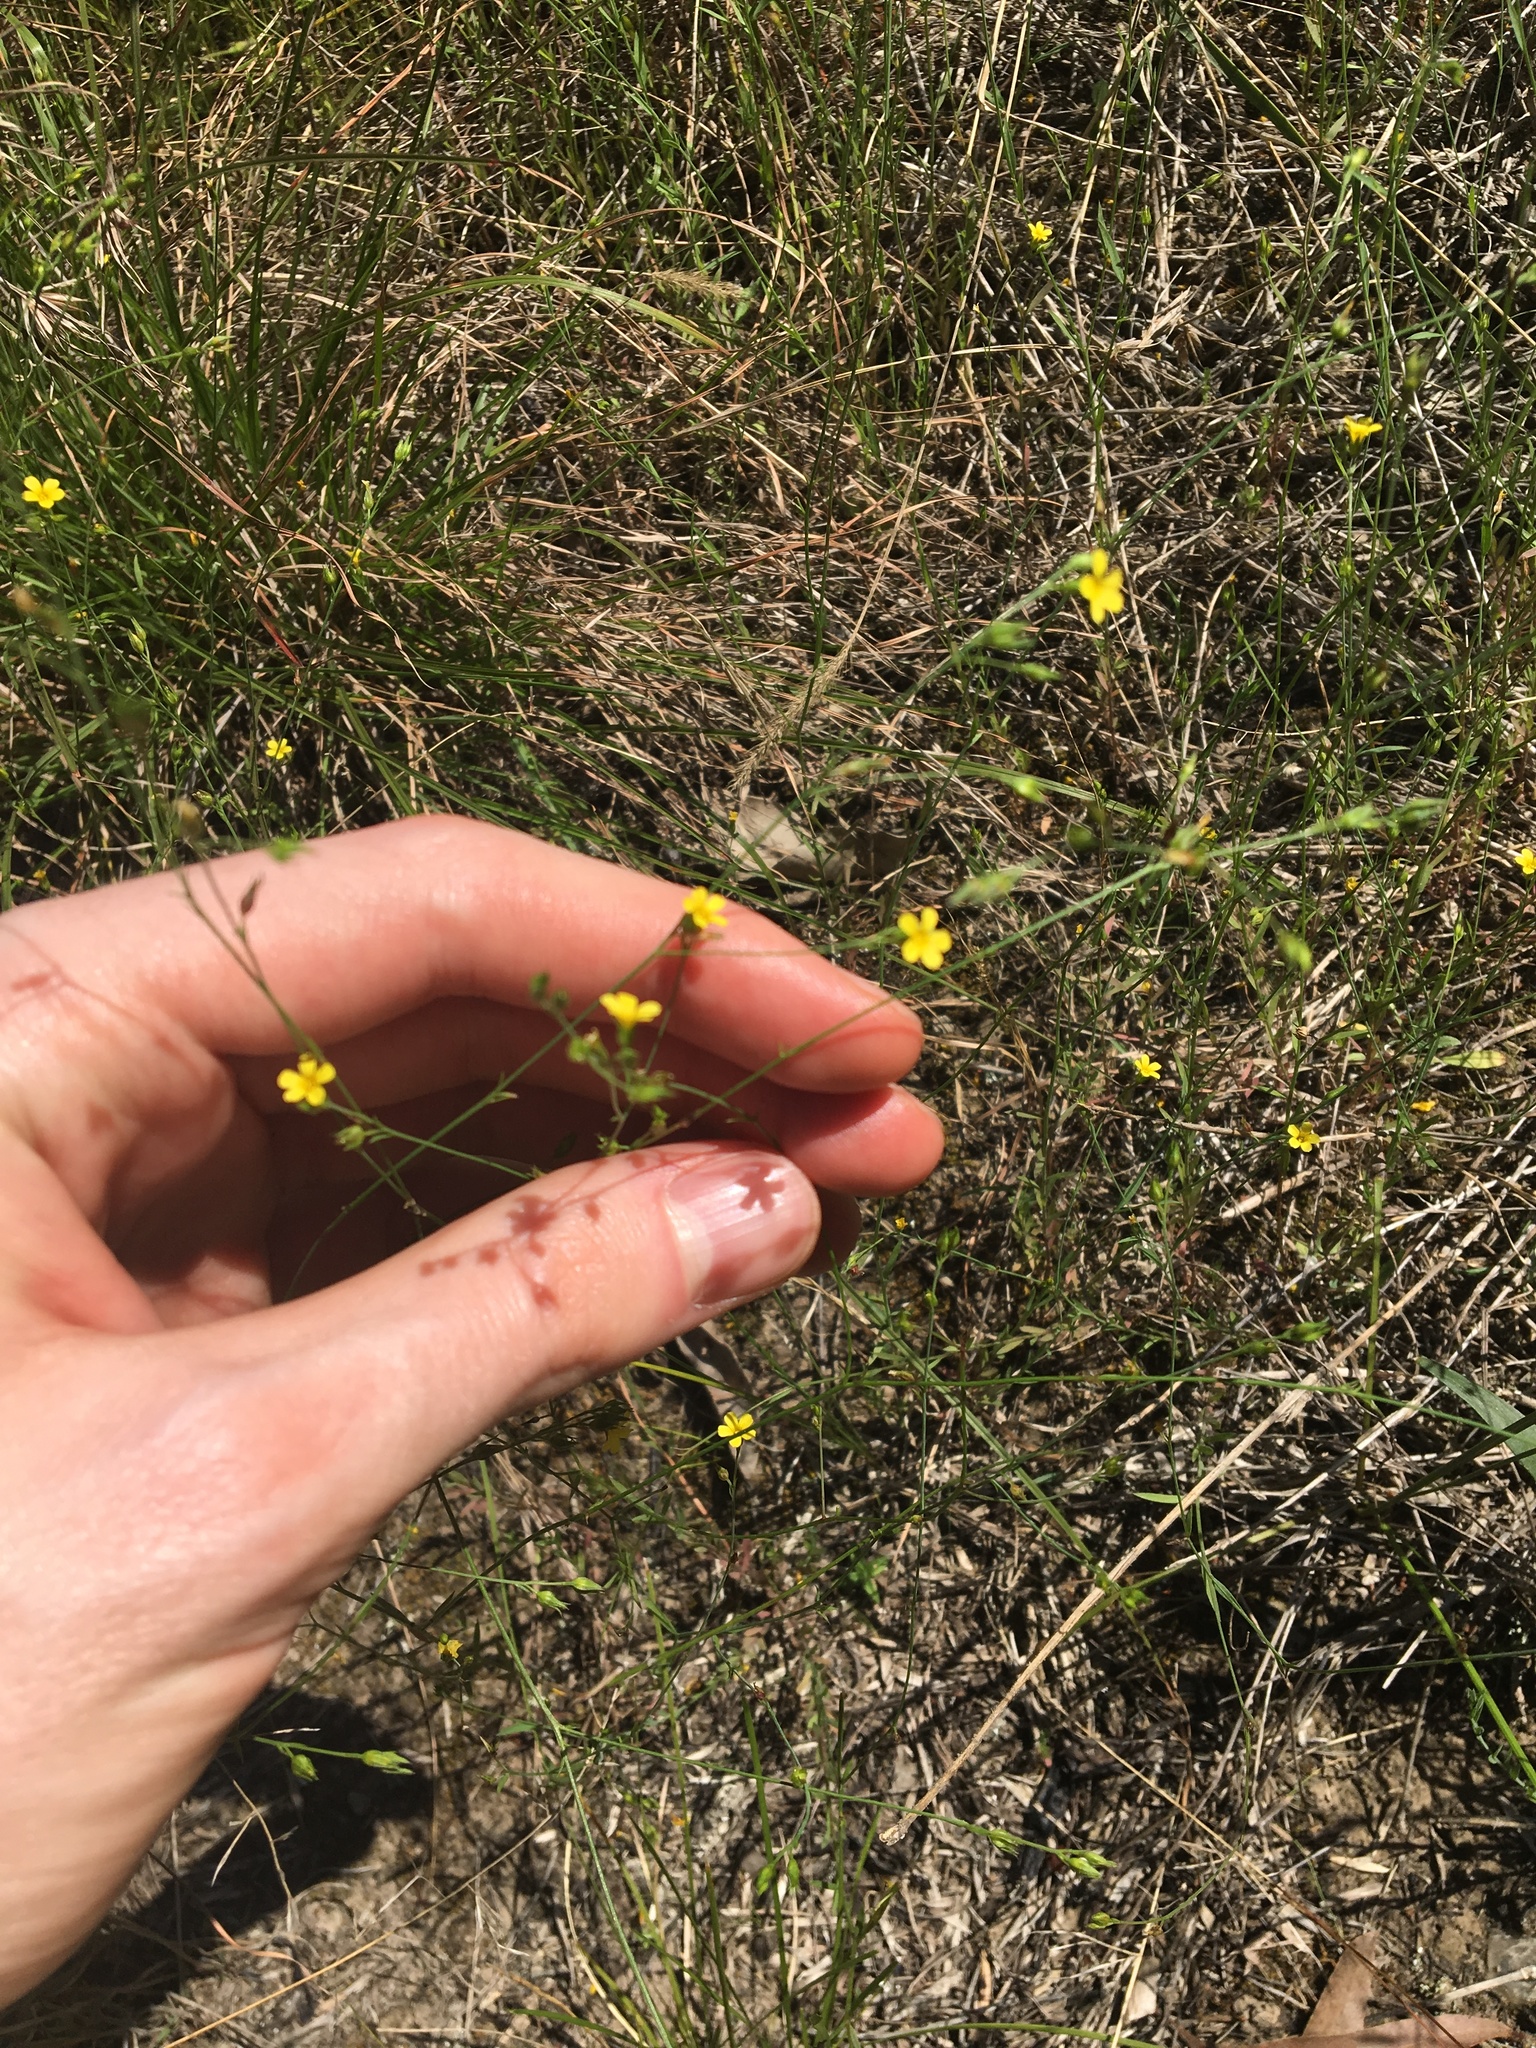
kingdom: Plantae
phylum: Tracheophyta
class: Magnoliopsida
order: Malpighiales
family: Linaceae
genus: Linum
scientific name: Linum trigynum
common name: French flax
